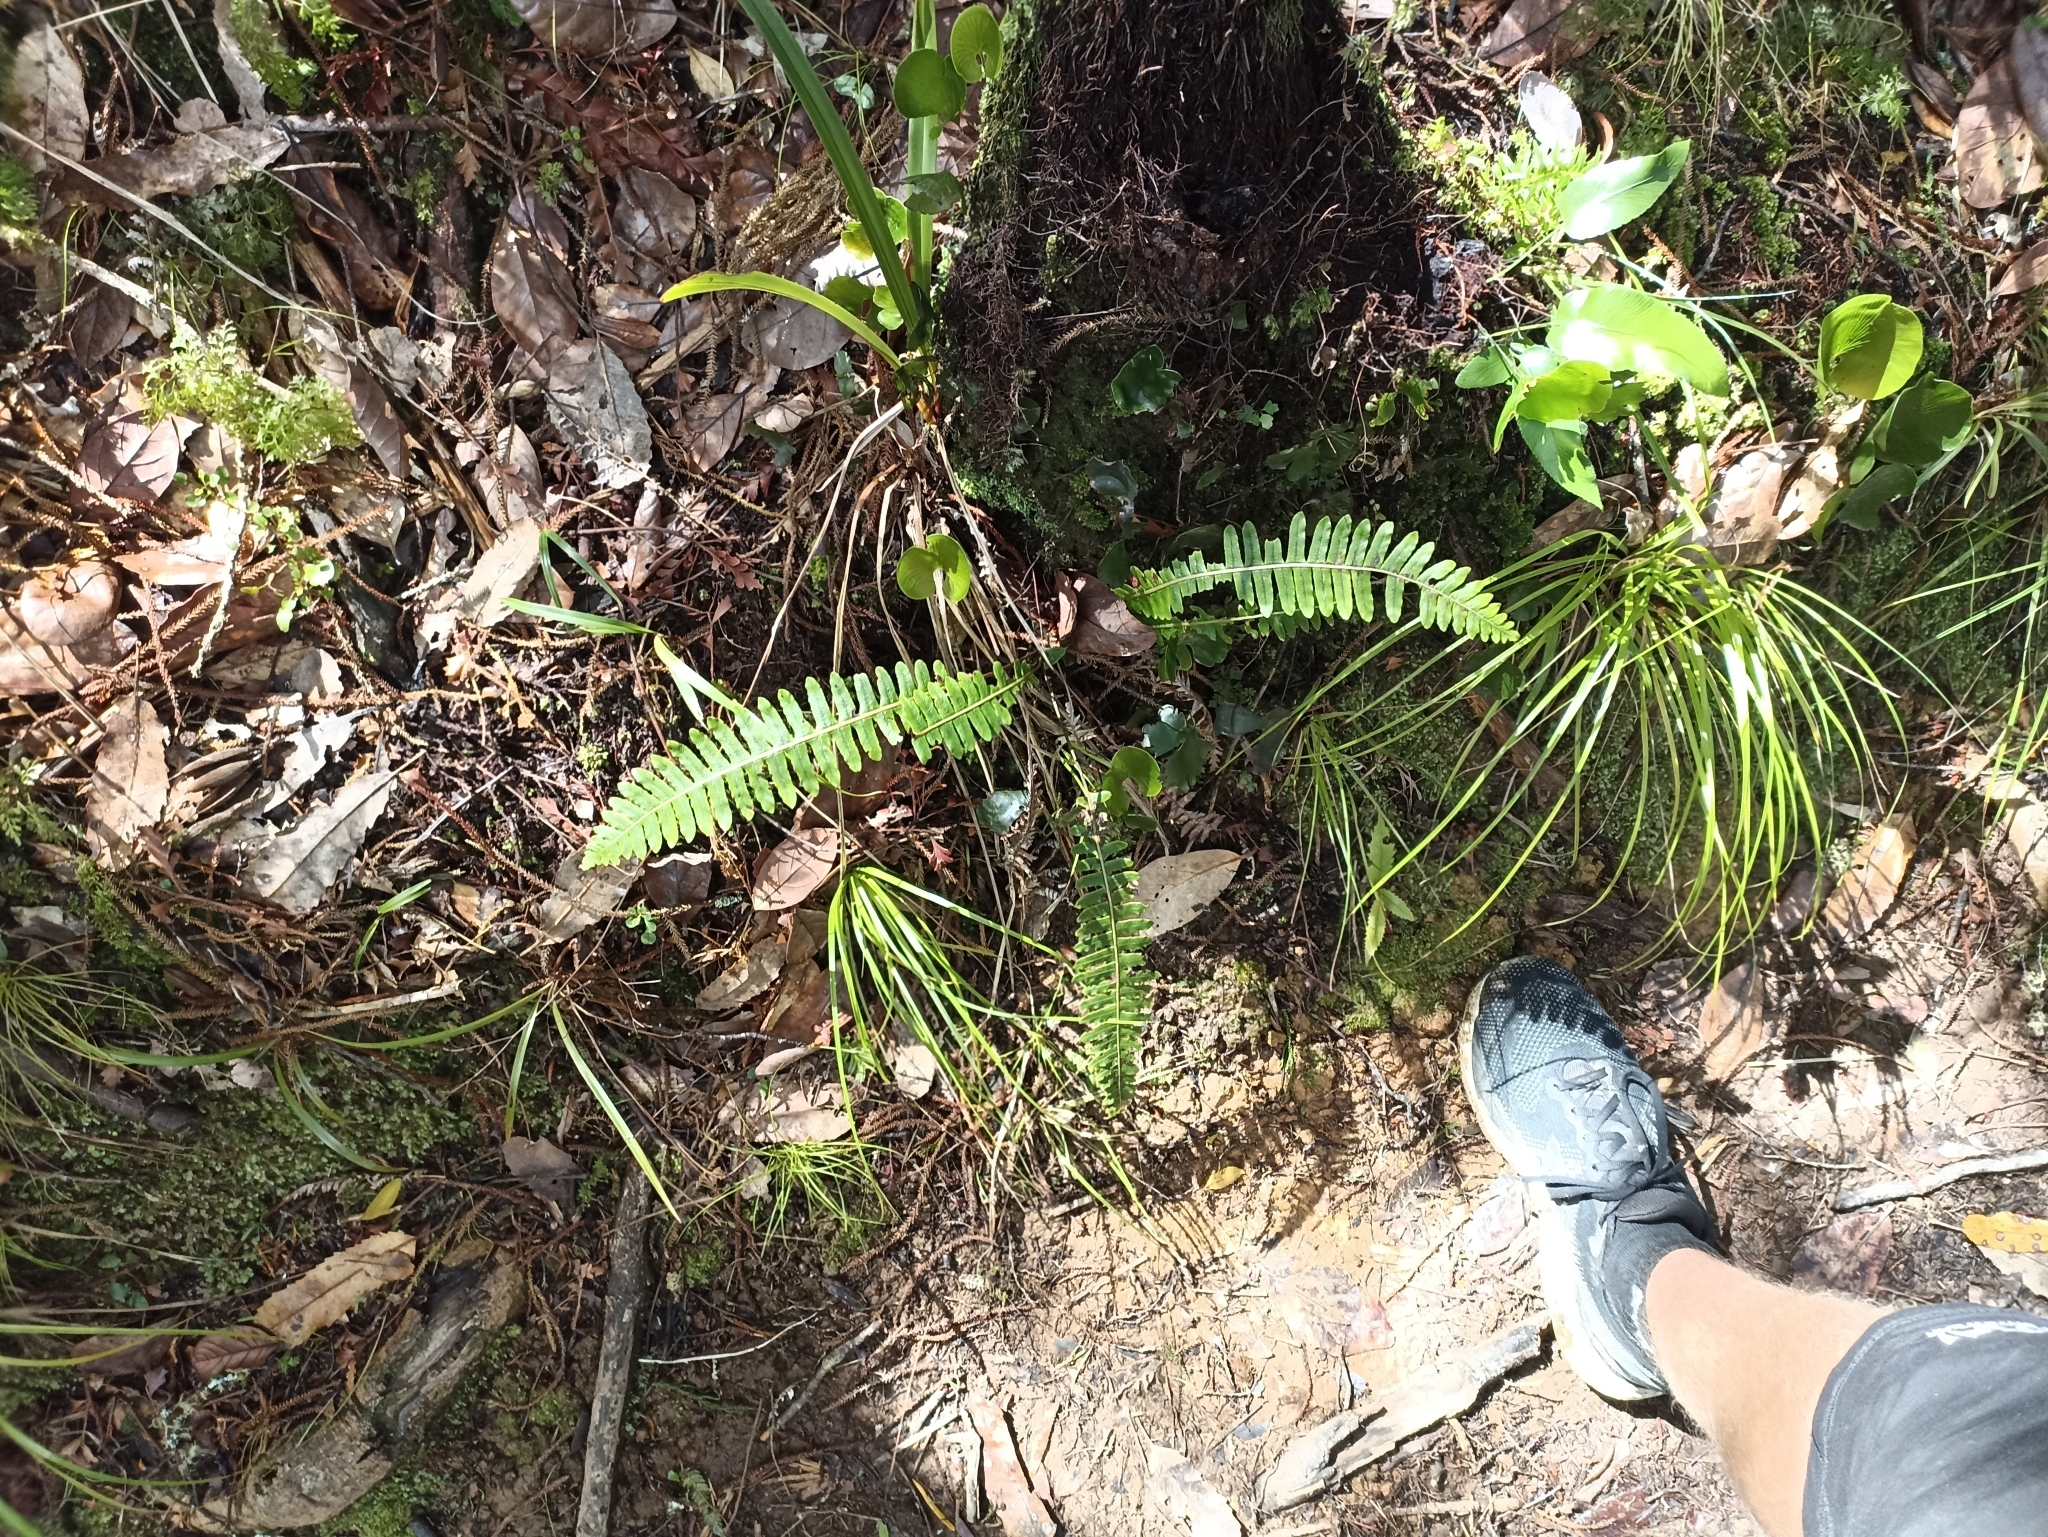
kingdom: Plantae
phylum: Tracheophyta
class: Polypodiopsida
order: Polypodiales
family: Blechnaceae
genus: Lomaria
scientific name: Lomaria discolor
